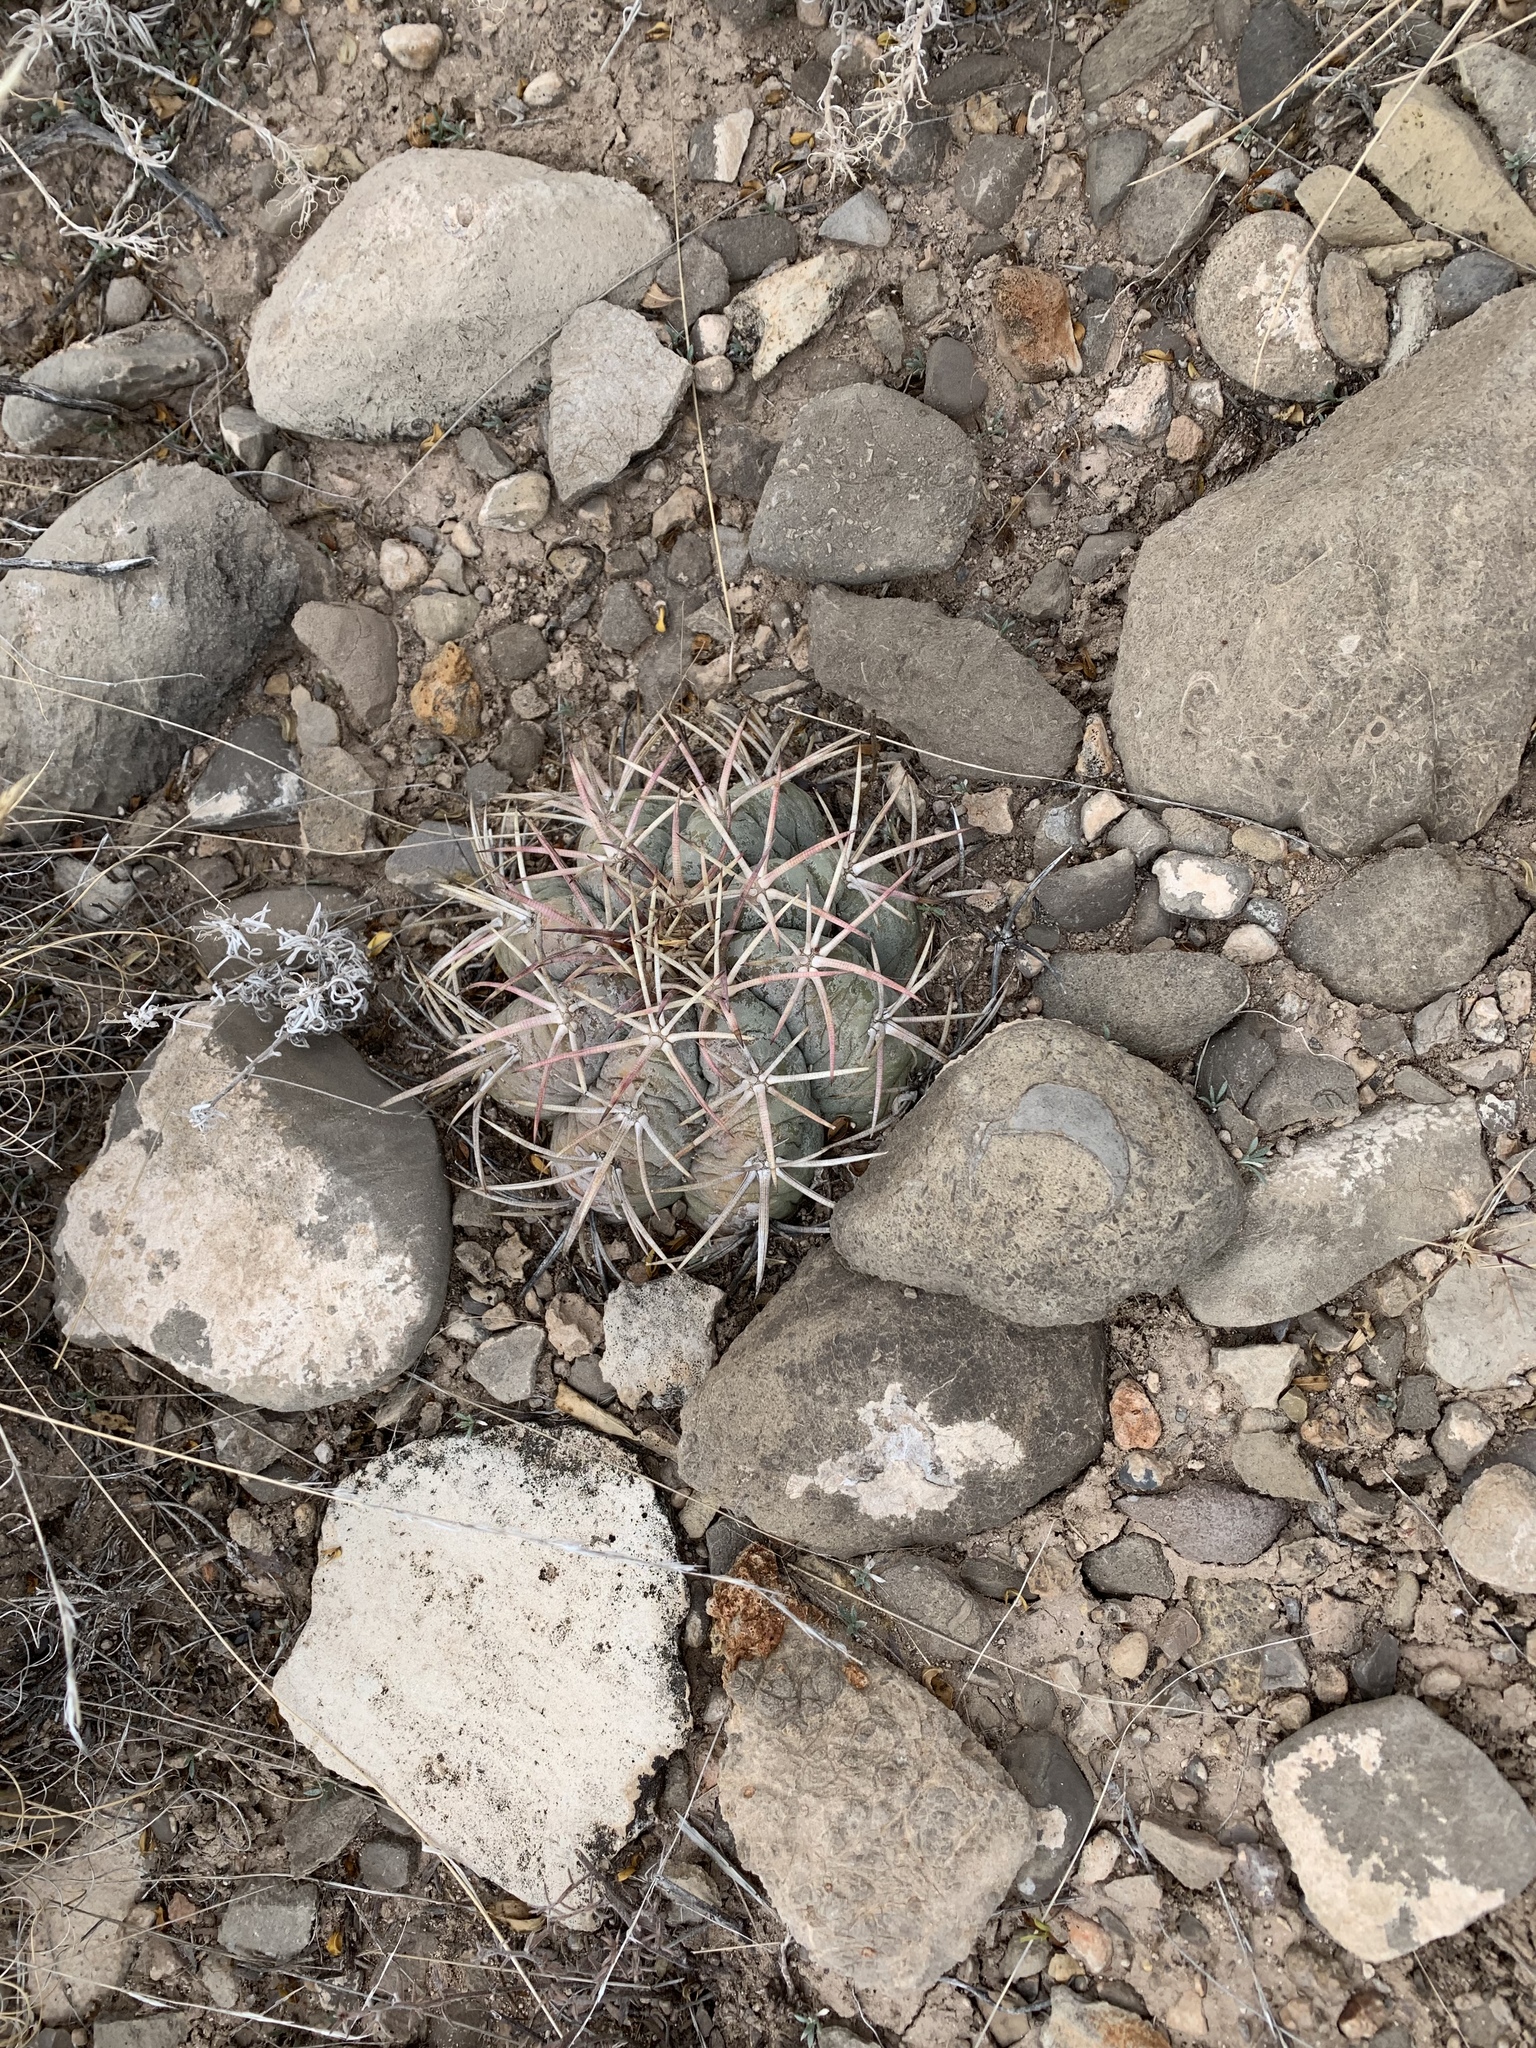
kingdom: Plantae
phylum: Tracheophyta
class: Magnoliopsida
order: Caryophyllales
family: Cactaceae
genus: Echinocactus
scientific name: Echinocactus horizonthalonius
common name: Devilshead
